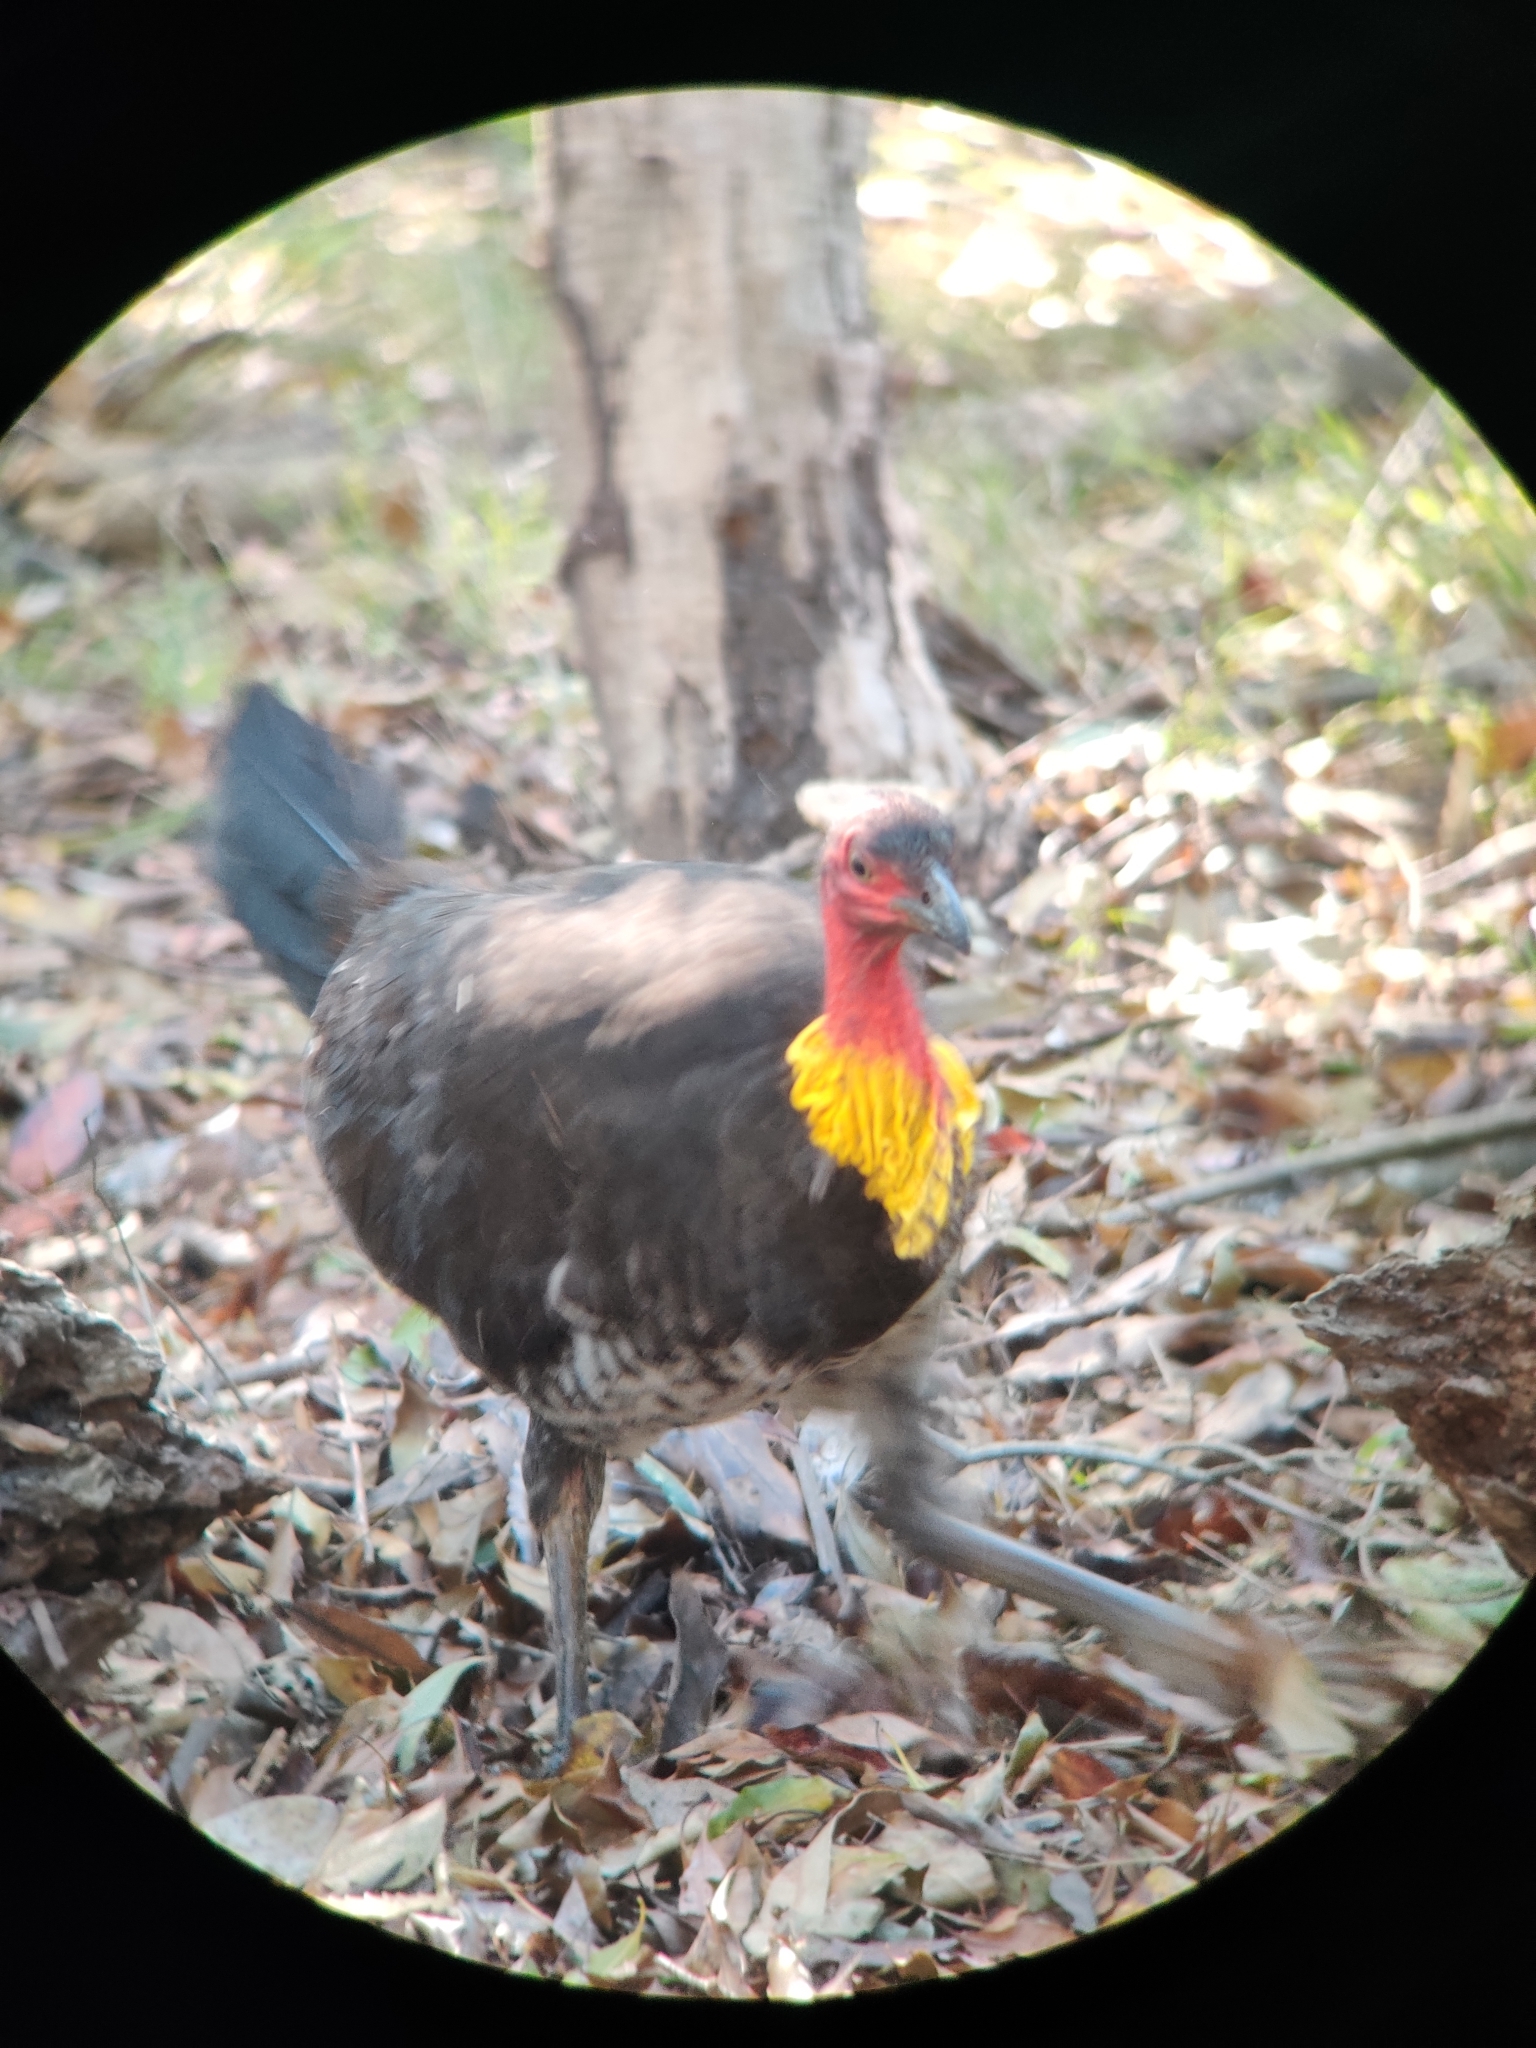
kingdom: Animalia
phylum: Chordata
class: Aves
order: Galliformes
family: Megapodiidae
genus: Alectura
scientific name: Alectura lathami
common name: Australian brushturkey
